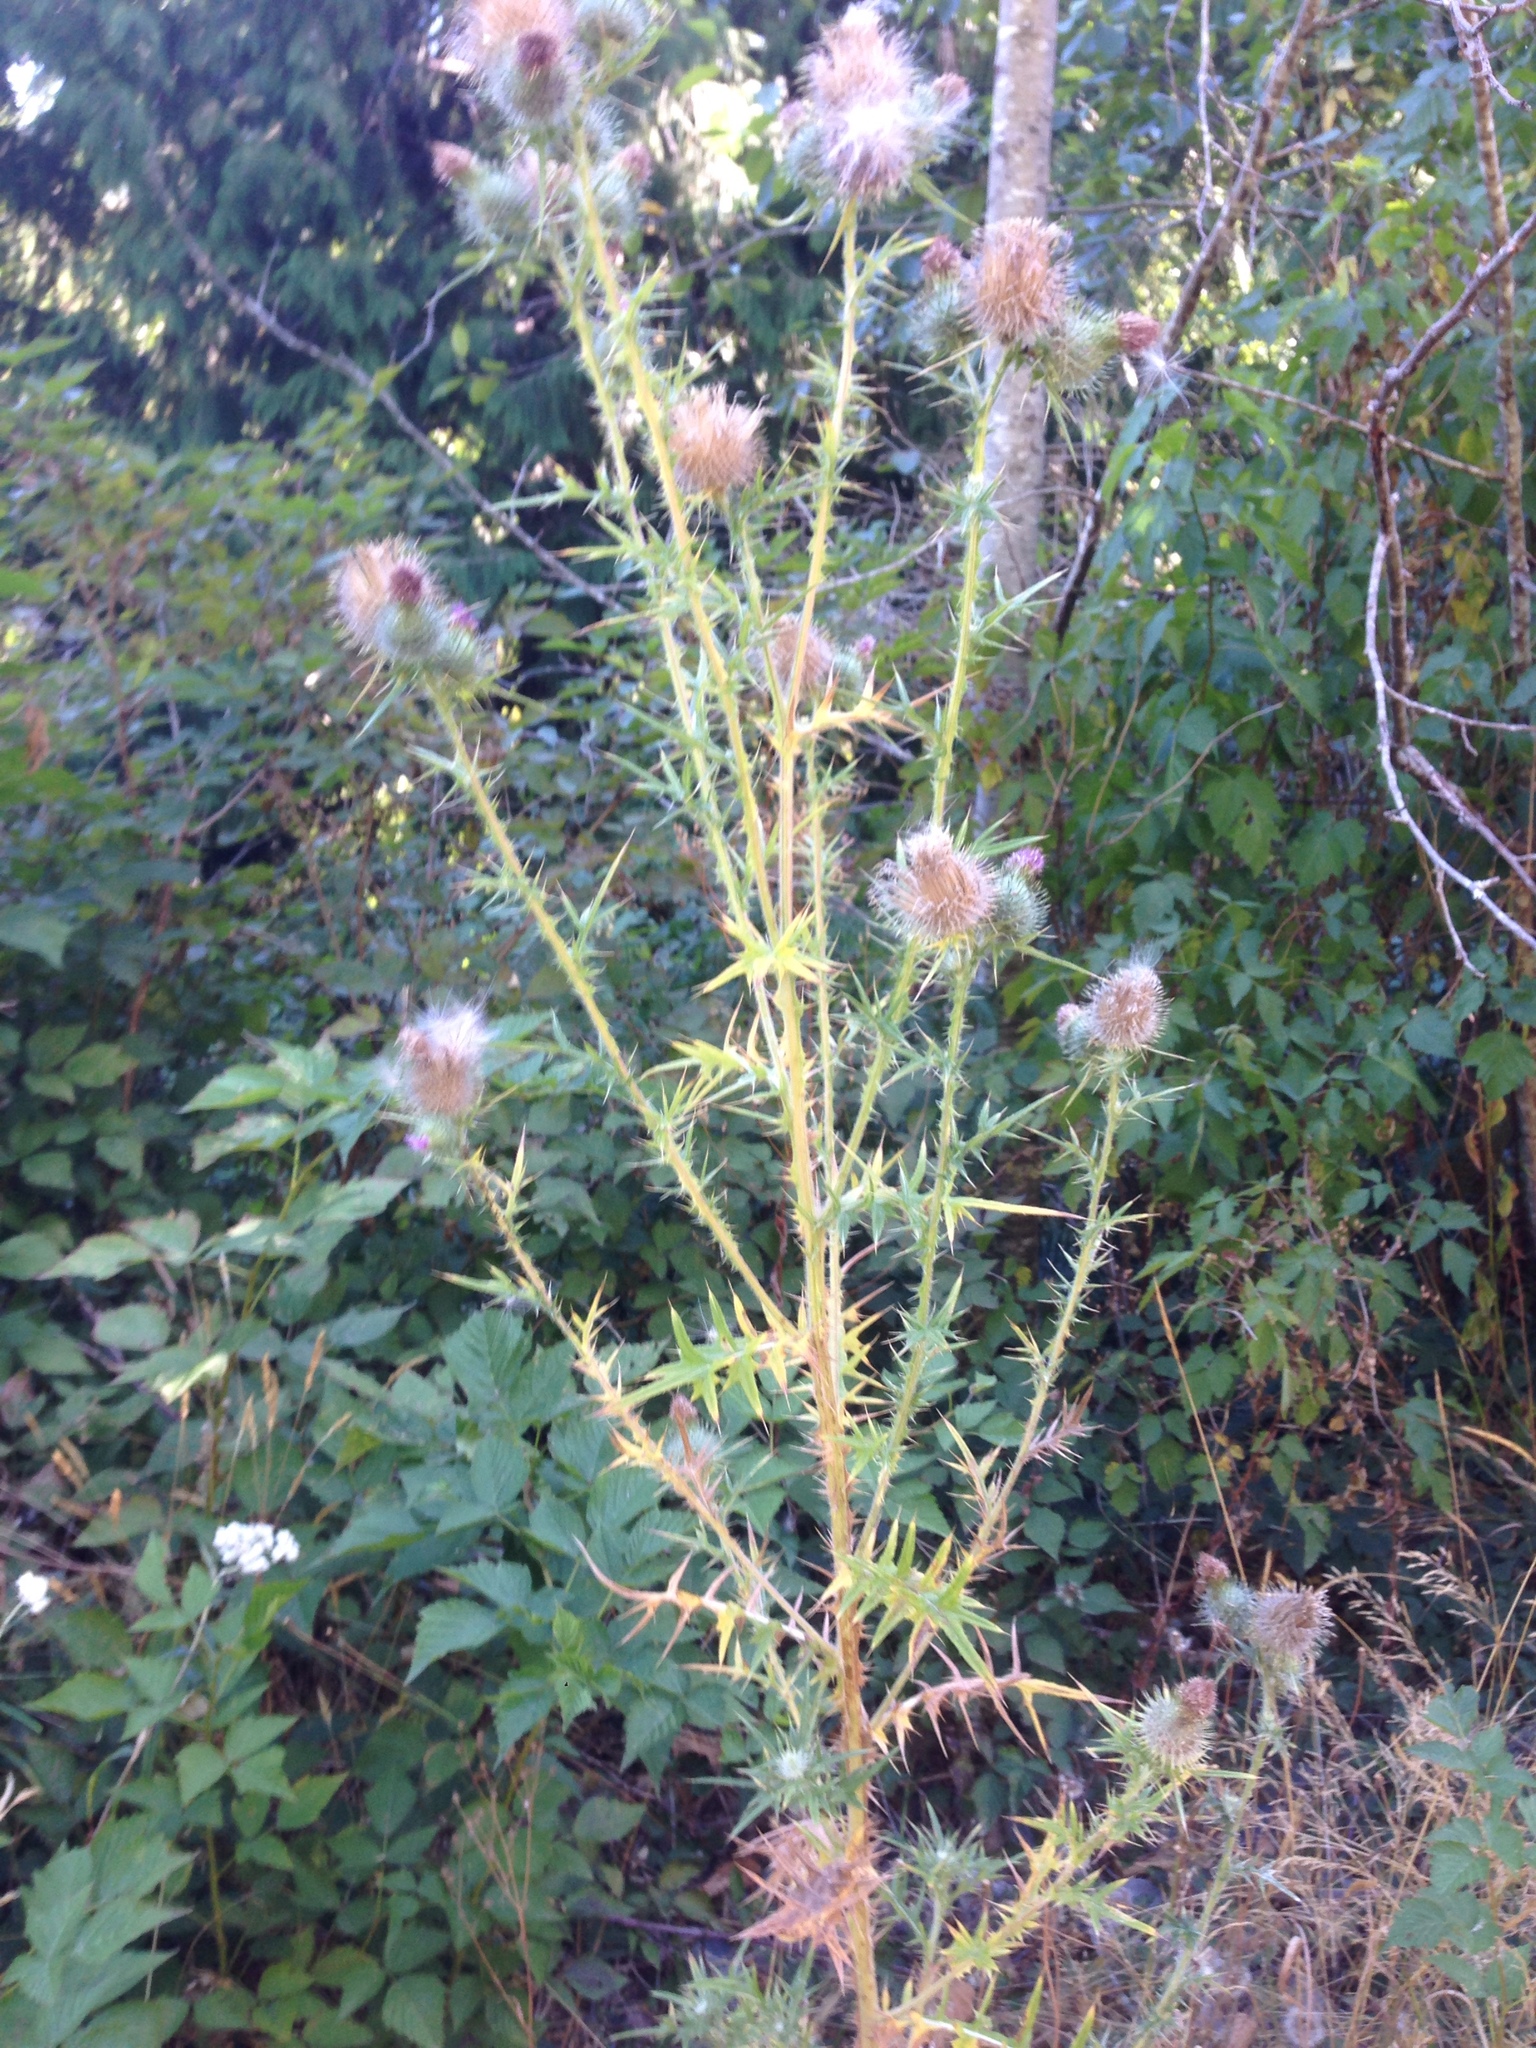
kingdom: Plantae
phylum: Tracheophyta
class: Magnoliopsida
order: Asterales
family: Asteraceae
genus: Cirsium
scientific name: Cirsium vulgare
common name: Bull thistle
